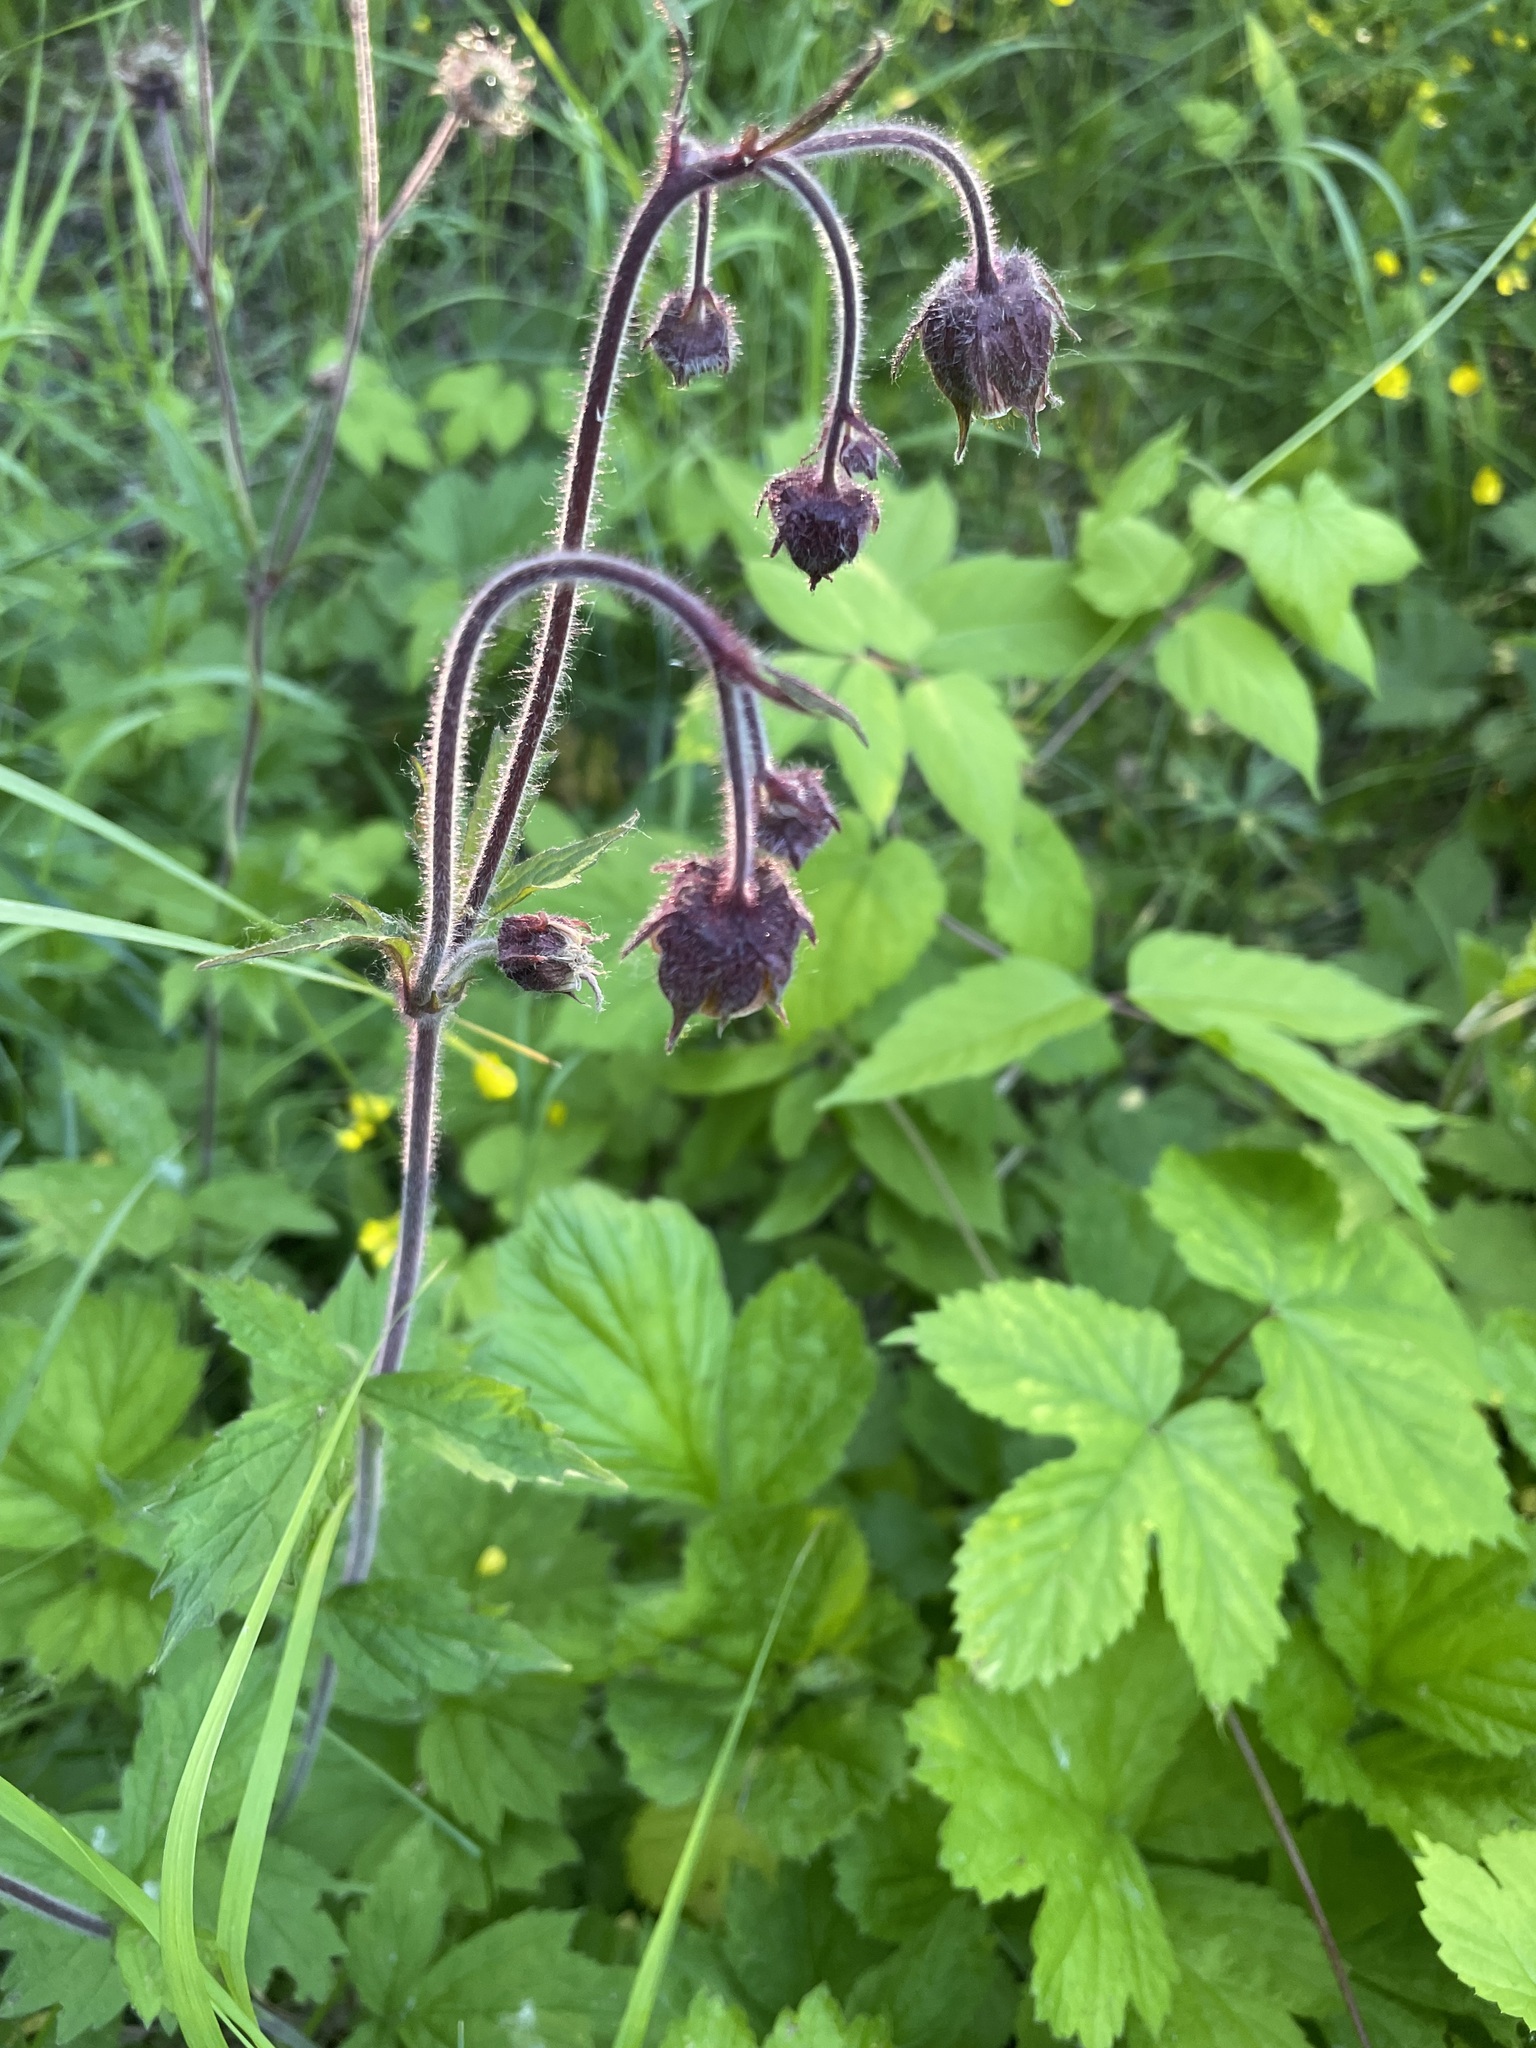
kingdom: Plantae
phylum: Tracheophyta
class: Magnoliopsida
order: Rosales
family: Rosaceae
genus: Geum
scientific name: Geum rivale
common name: Water avens
